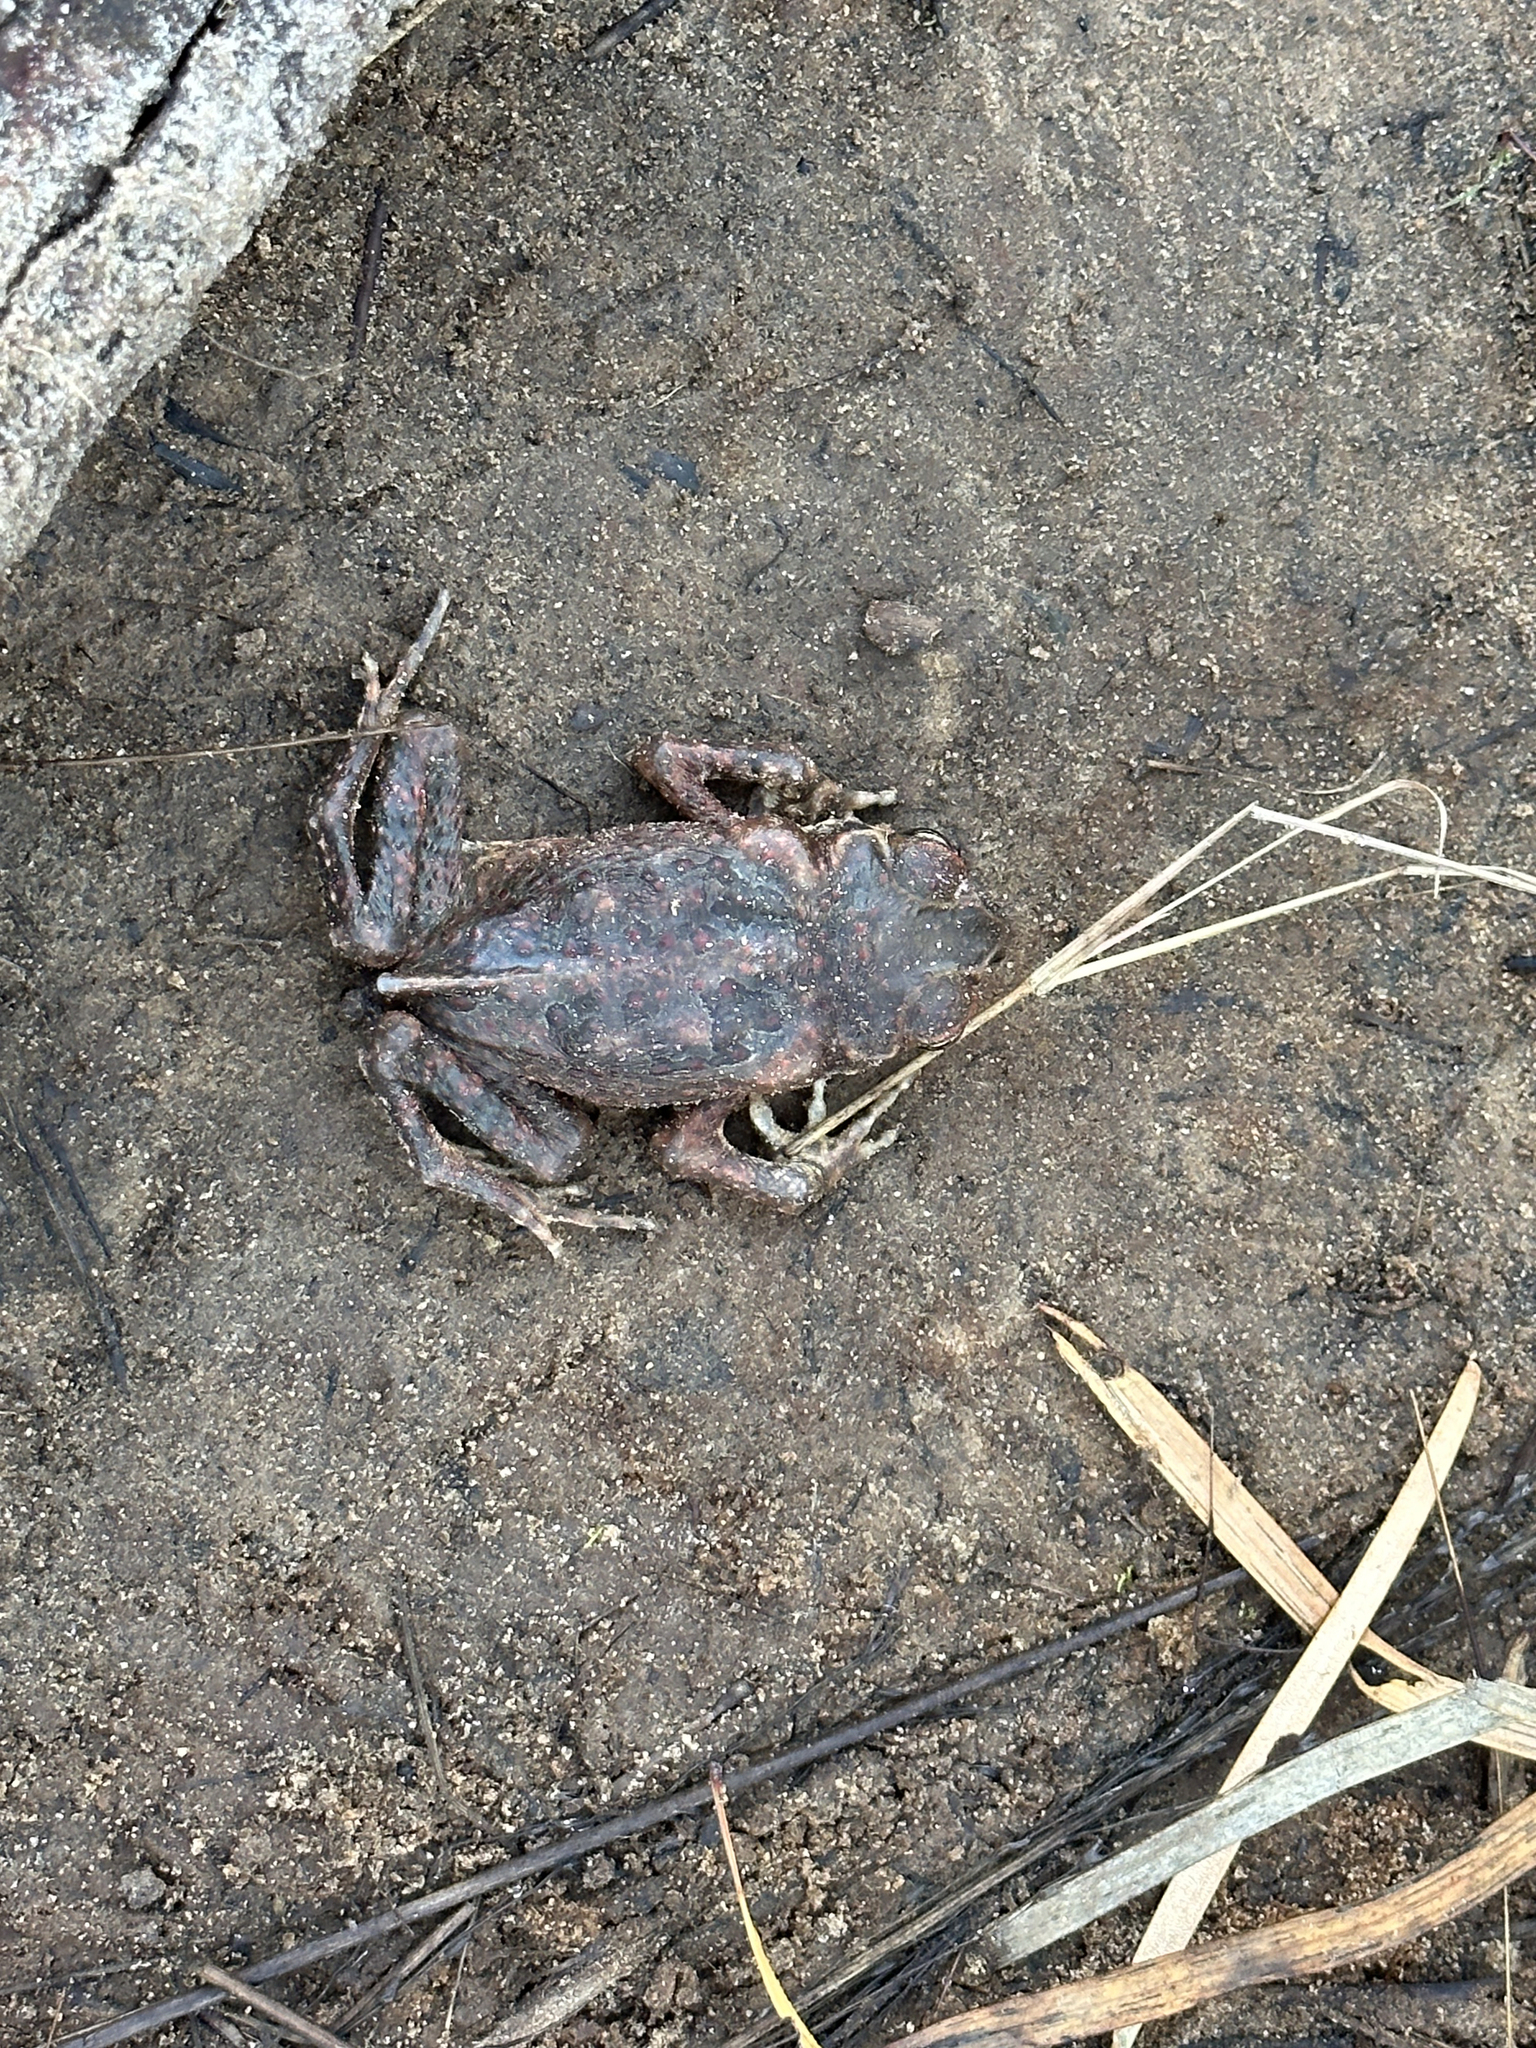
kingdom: Animalia
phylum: Chordata
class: Amphibia
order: Anura
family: Bufonidae
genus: Rhinella
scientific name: Rhinella marina
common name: Cane toad
